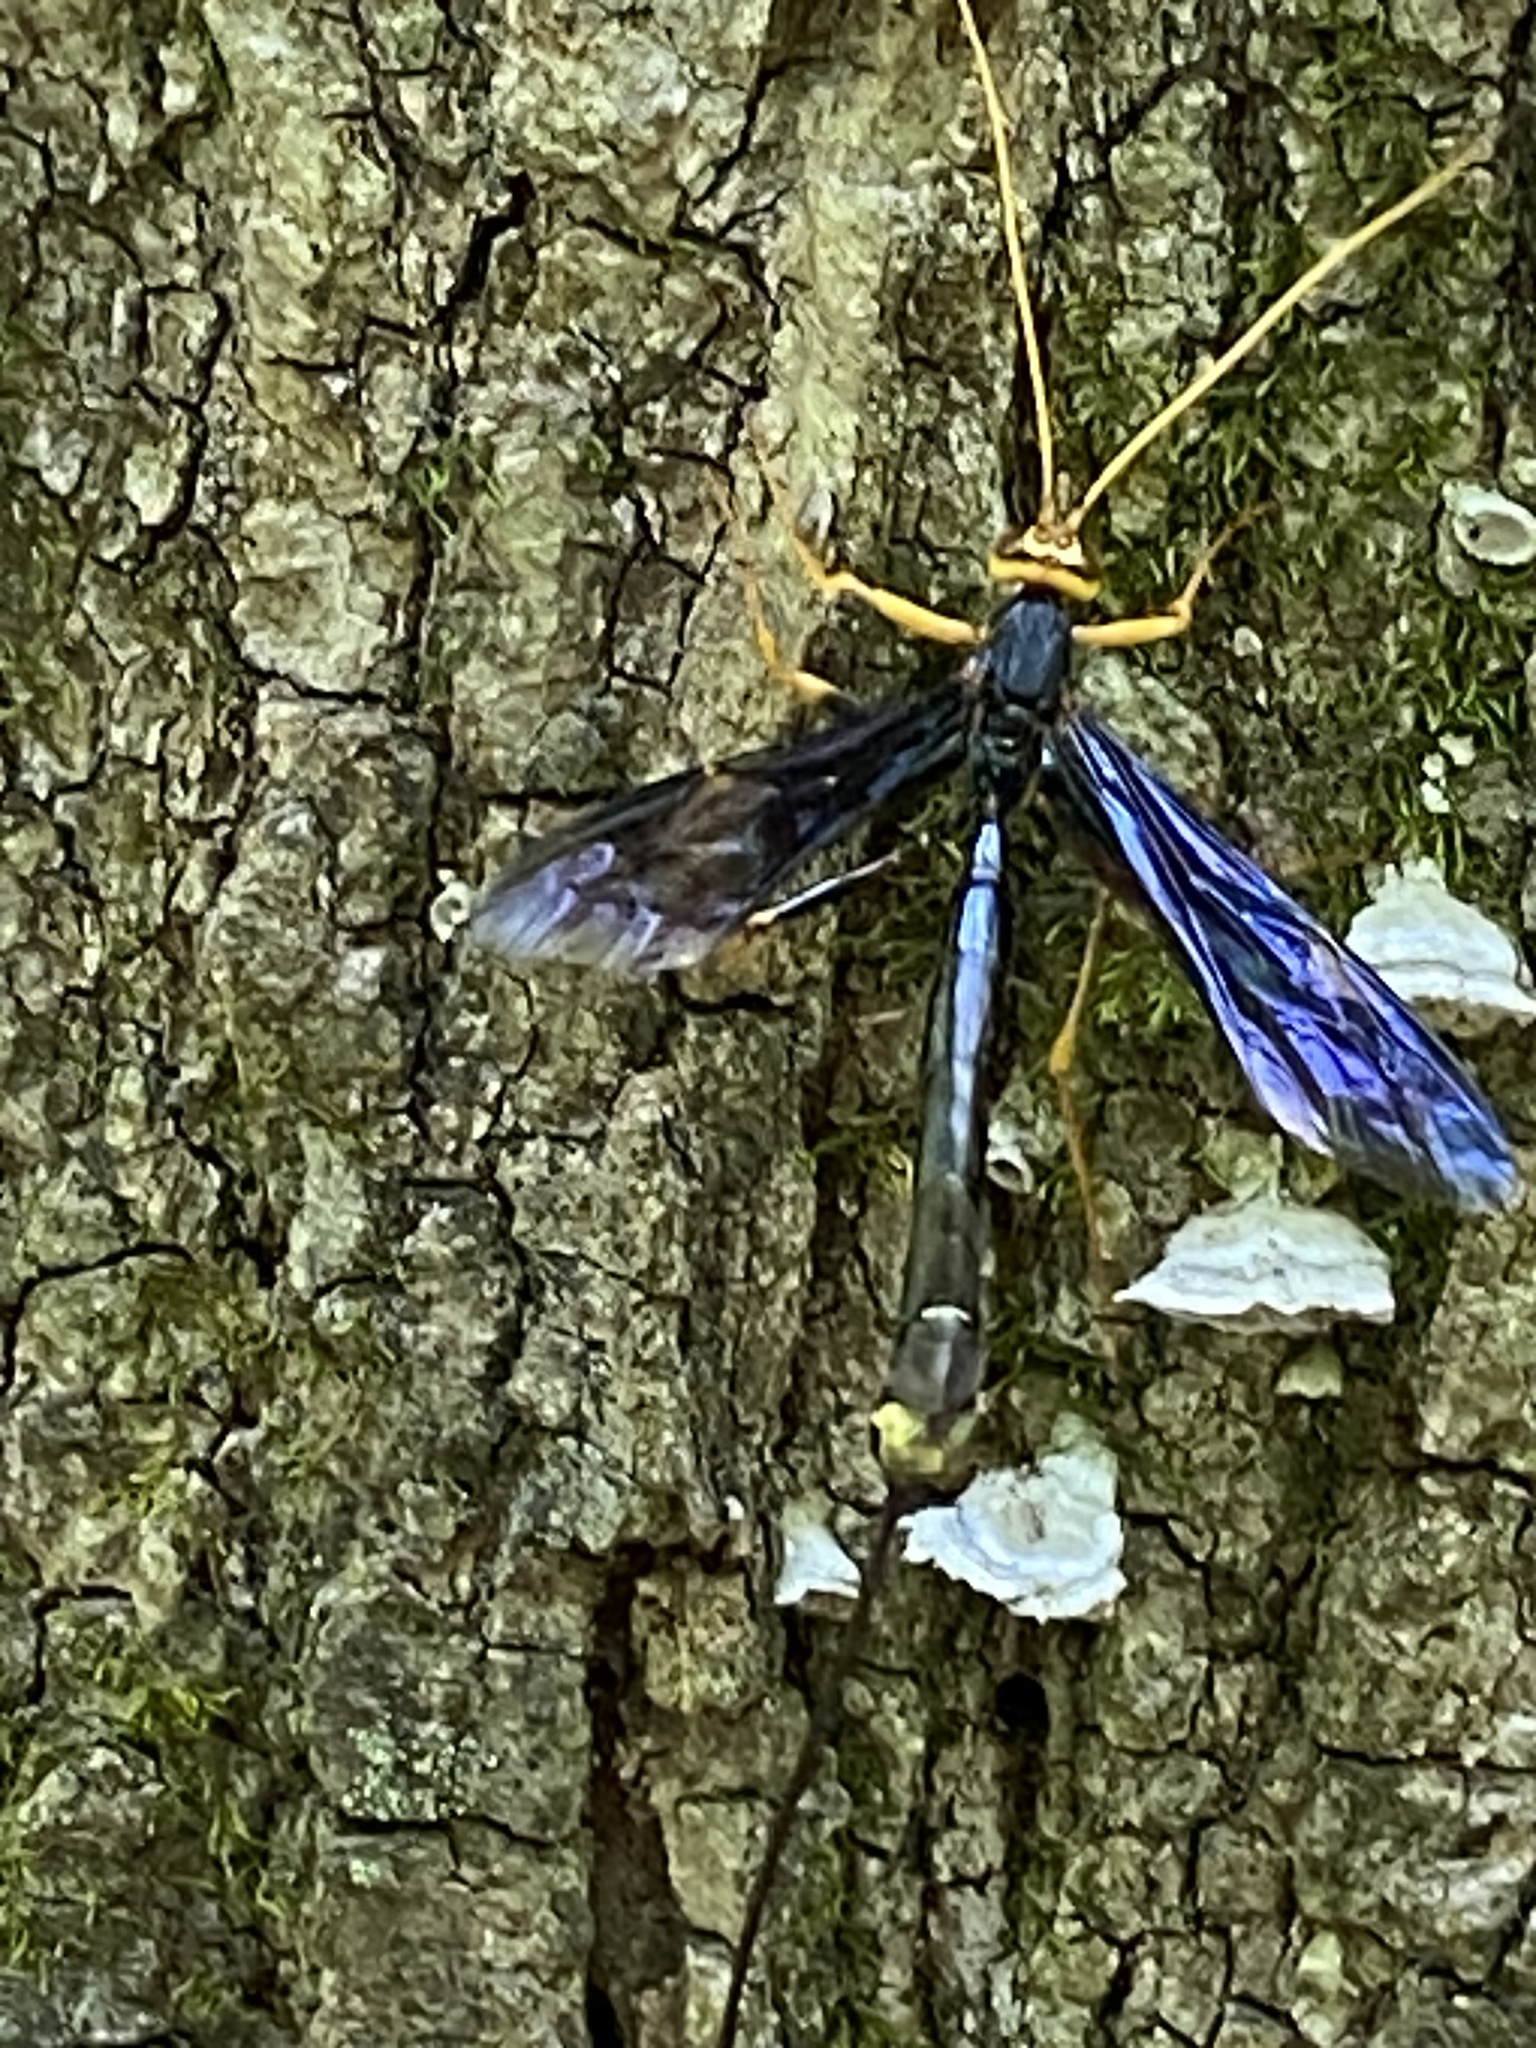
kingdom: Animalia
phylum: Arthropoda
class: Insecta
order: Hymenoptera
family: Ichneumonidae
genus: Megarhyssa
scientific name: Megarhyssa atrata
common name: Black giant ichneumonid wasp
